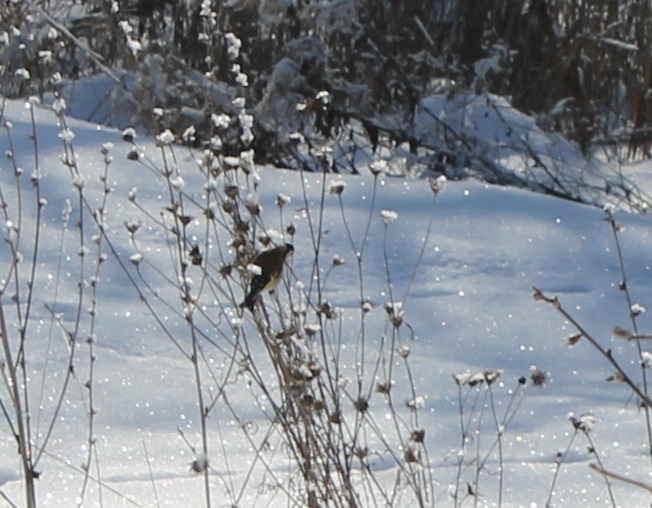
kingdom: Animalia
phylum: Chordata
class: Aves
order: Passeriformes
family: Fringillidae
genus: Carduelis
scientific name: Carduelis carduelis
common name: European goldfinch
